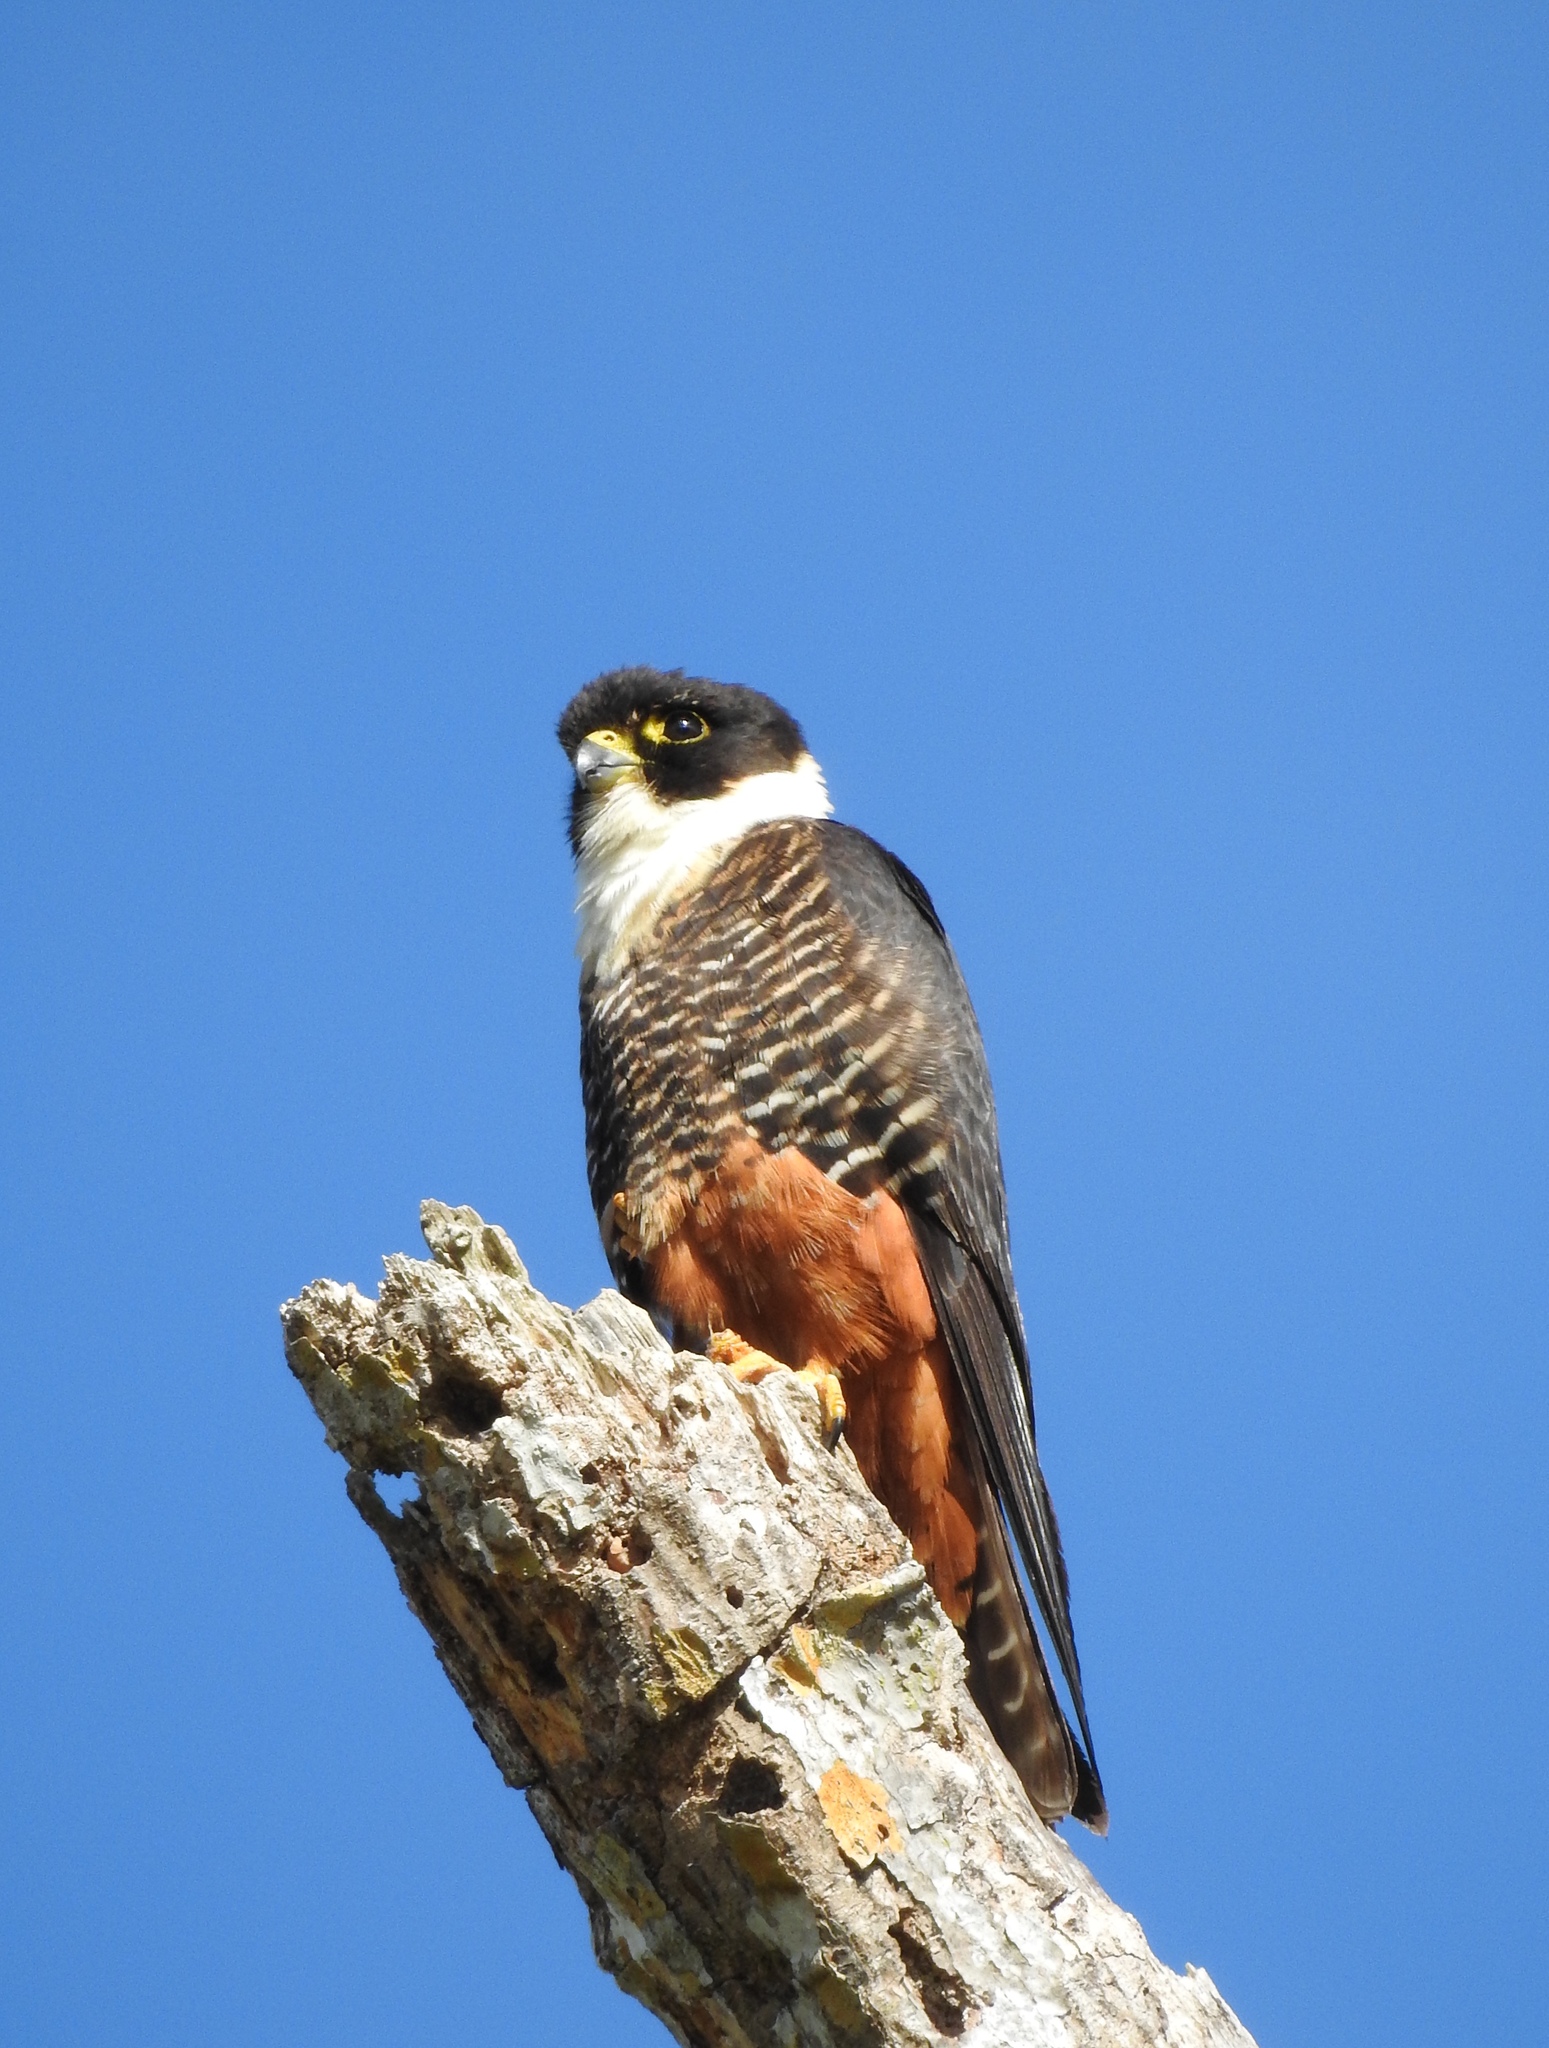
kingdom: Animalia
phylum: Chordata
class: Aves
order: Falconiformes
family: Falconidae
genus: Falco
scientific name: Falco rufigularis
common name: Bat falcon
